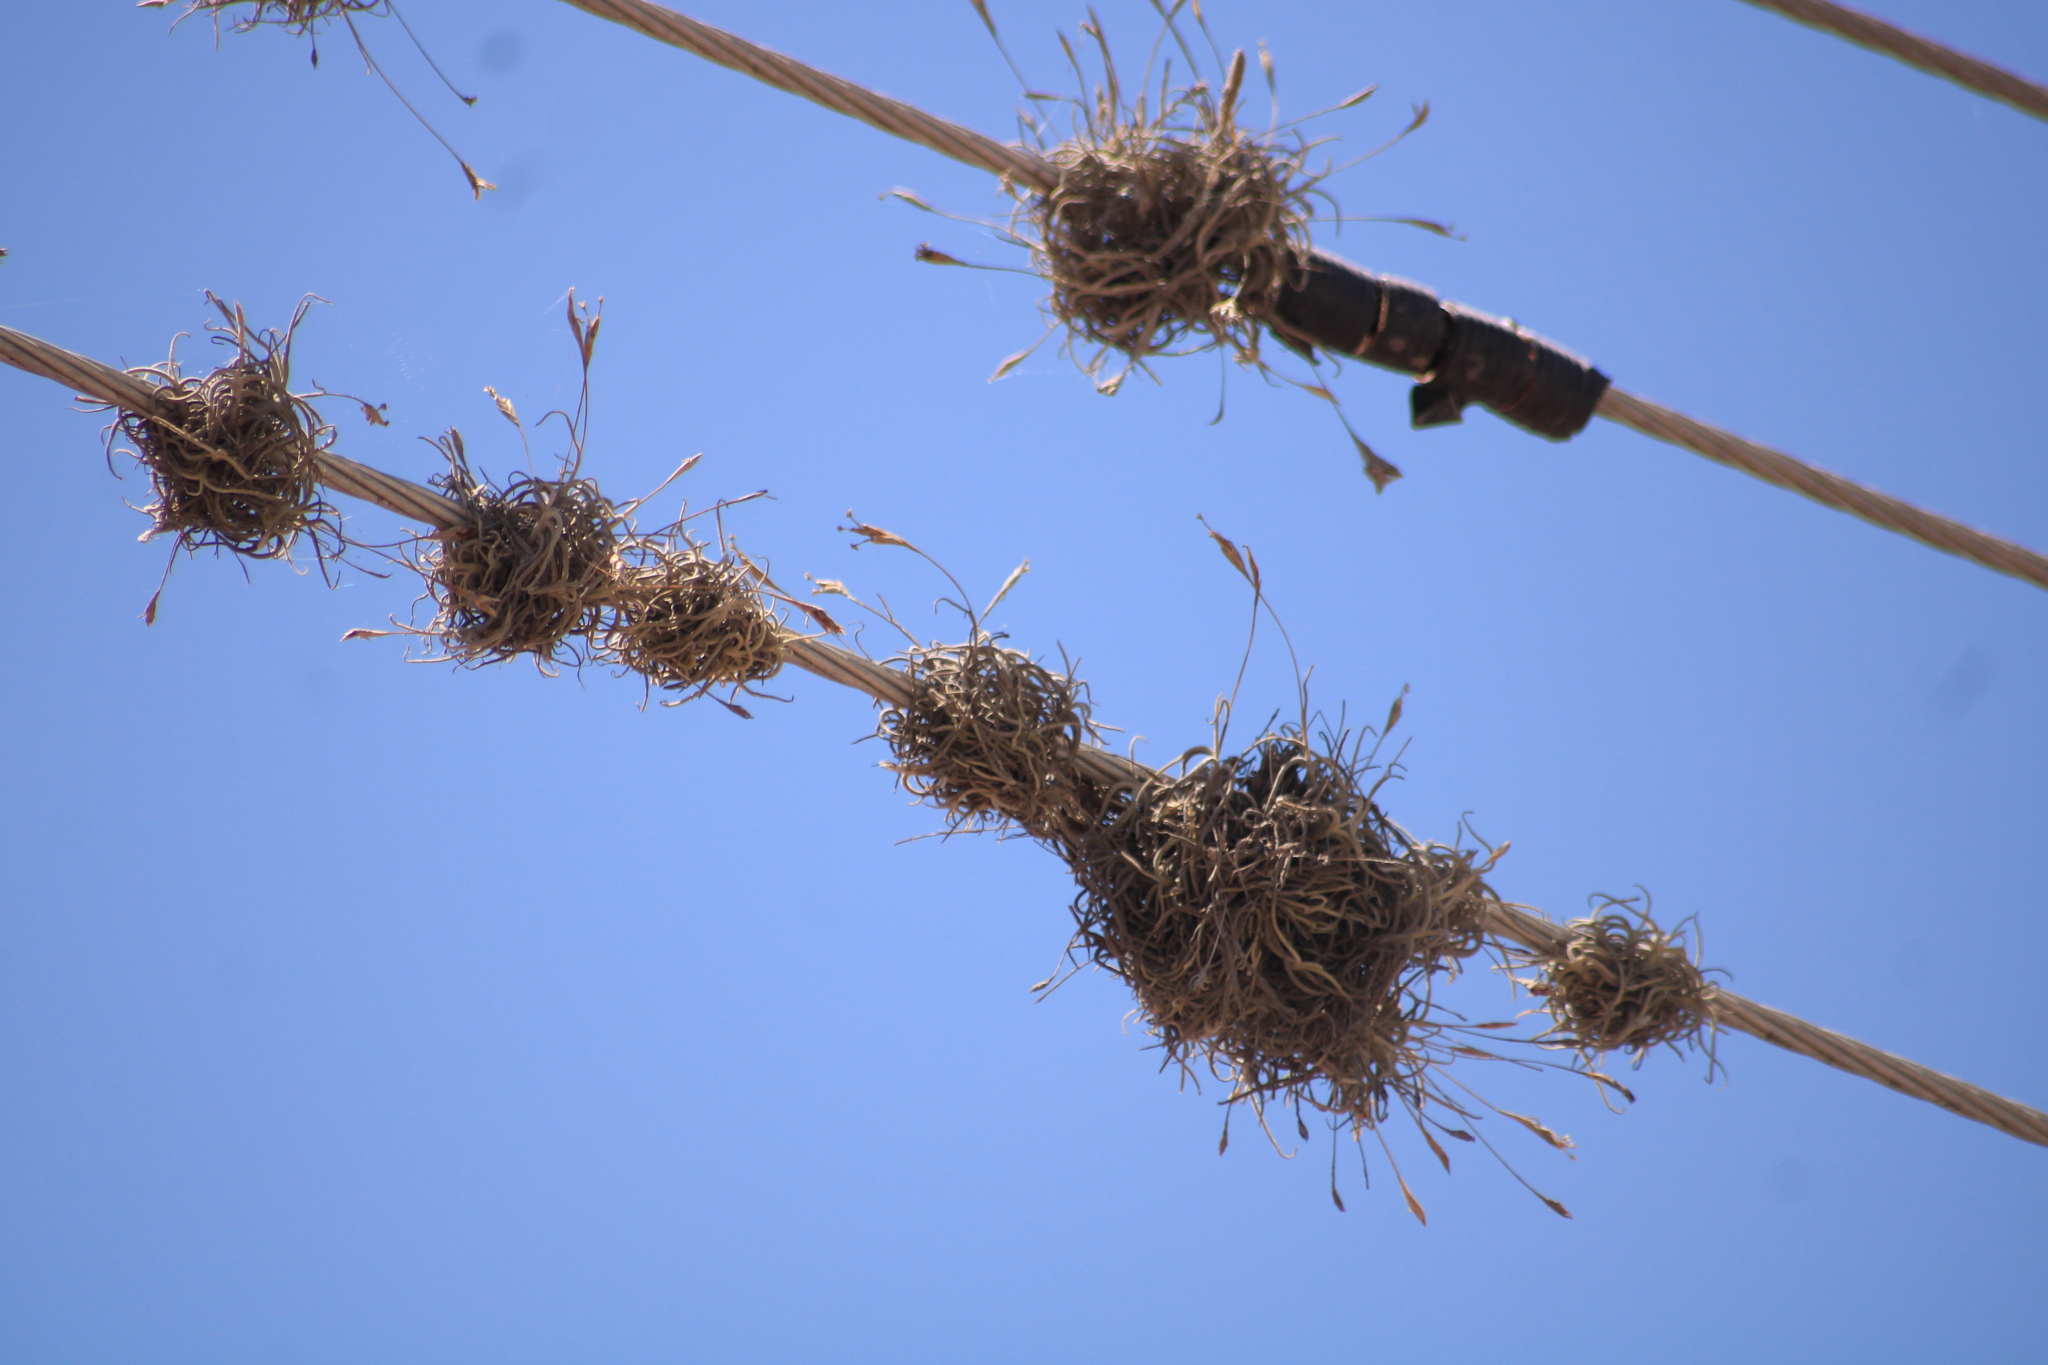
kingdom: Plantae
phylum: Tracheophyta
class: Liliopsida
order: Poales
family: Bromeliaceae
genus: Tillandsia
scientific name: Tillandsia recurvata
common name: Small ballmoss
